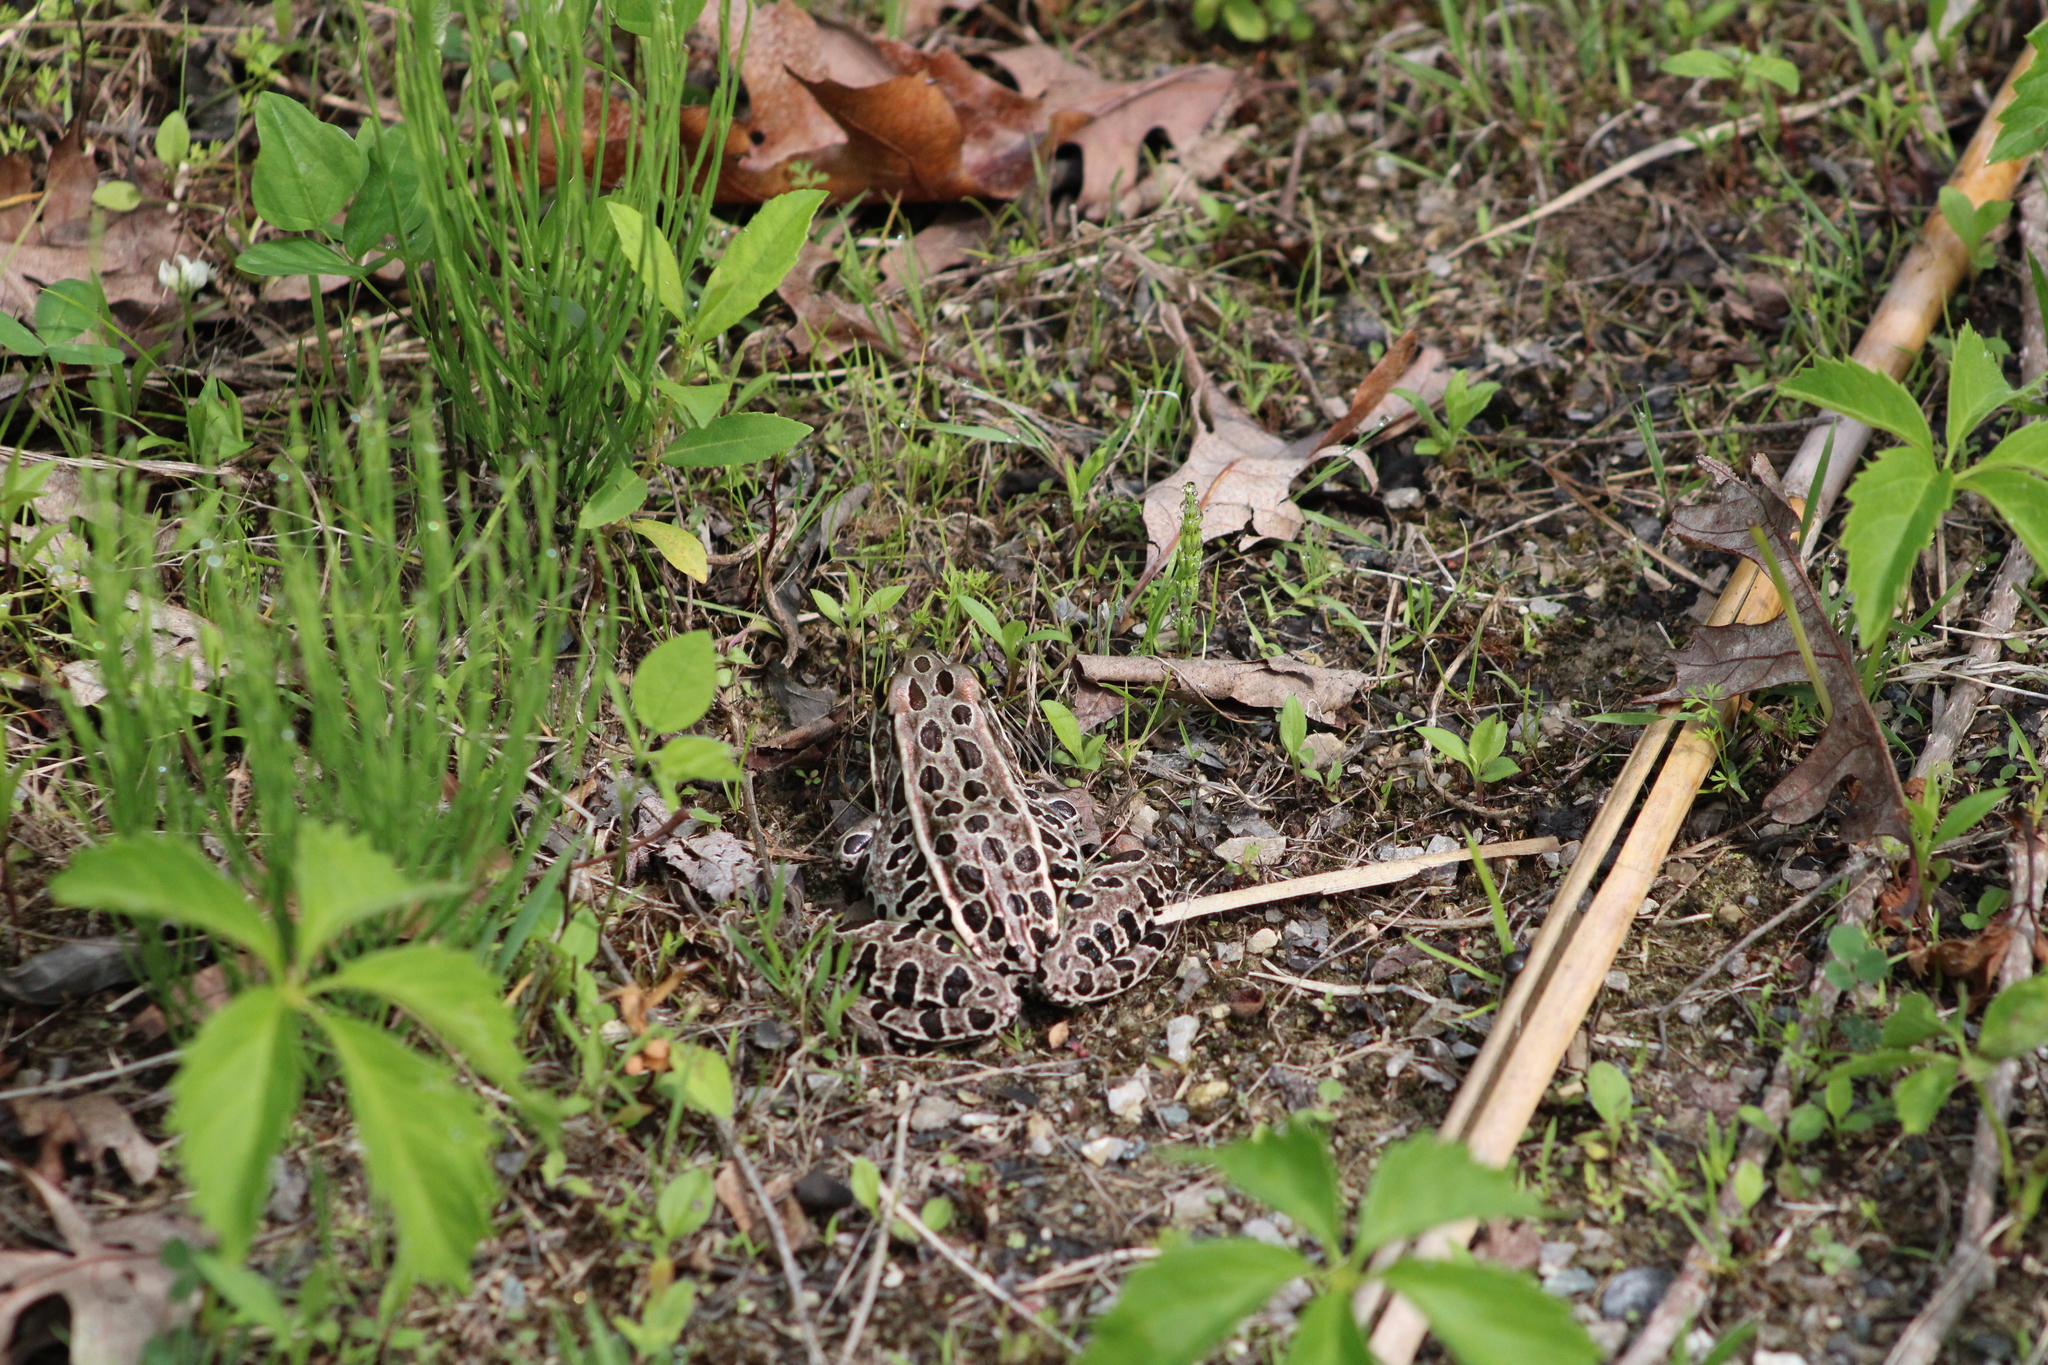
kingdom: Animalia
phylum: Chordata
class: Amphibia
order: Anura
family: Ranidae
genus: Lithobates
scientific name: Lithobates pipiens
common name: Northern leopard frog
